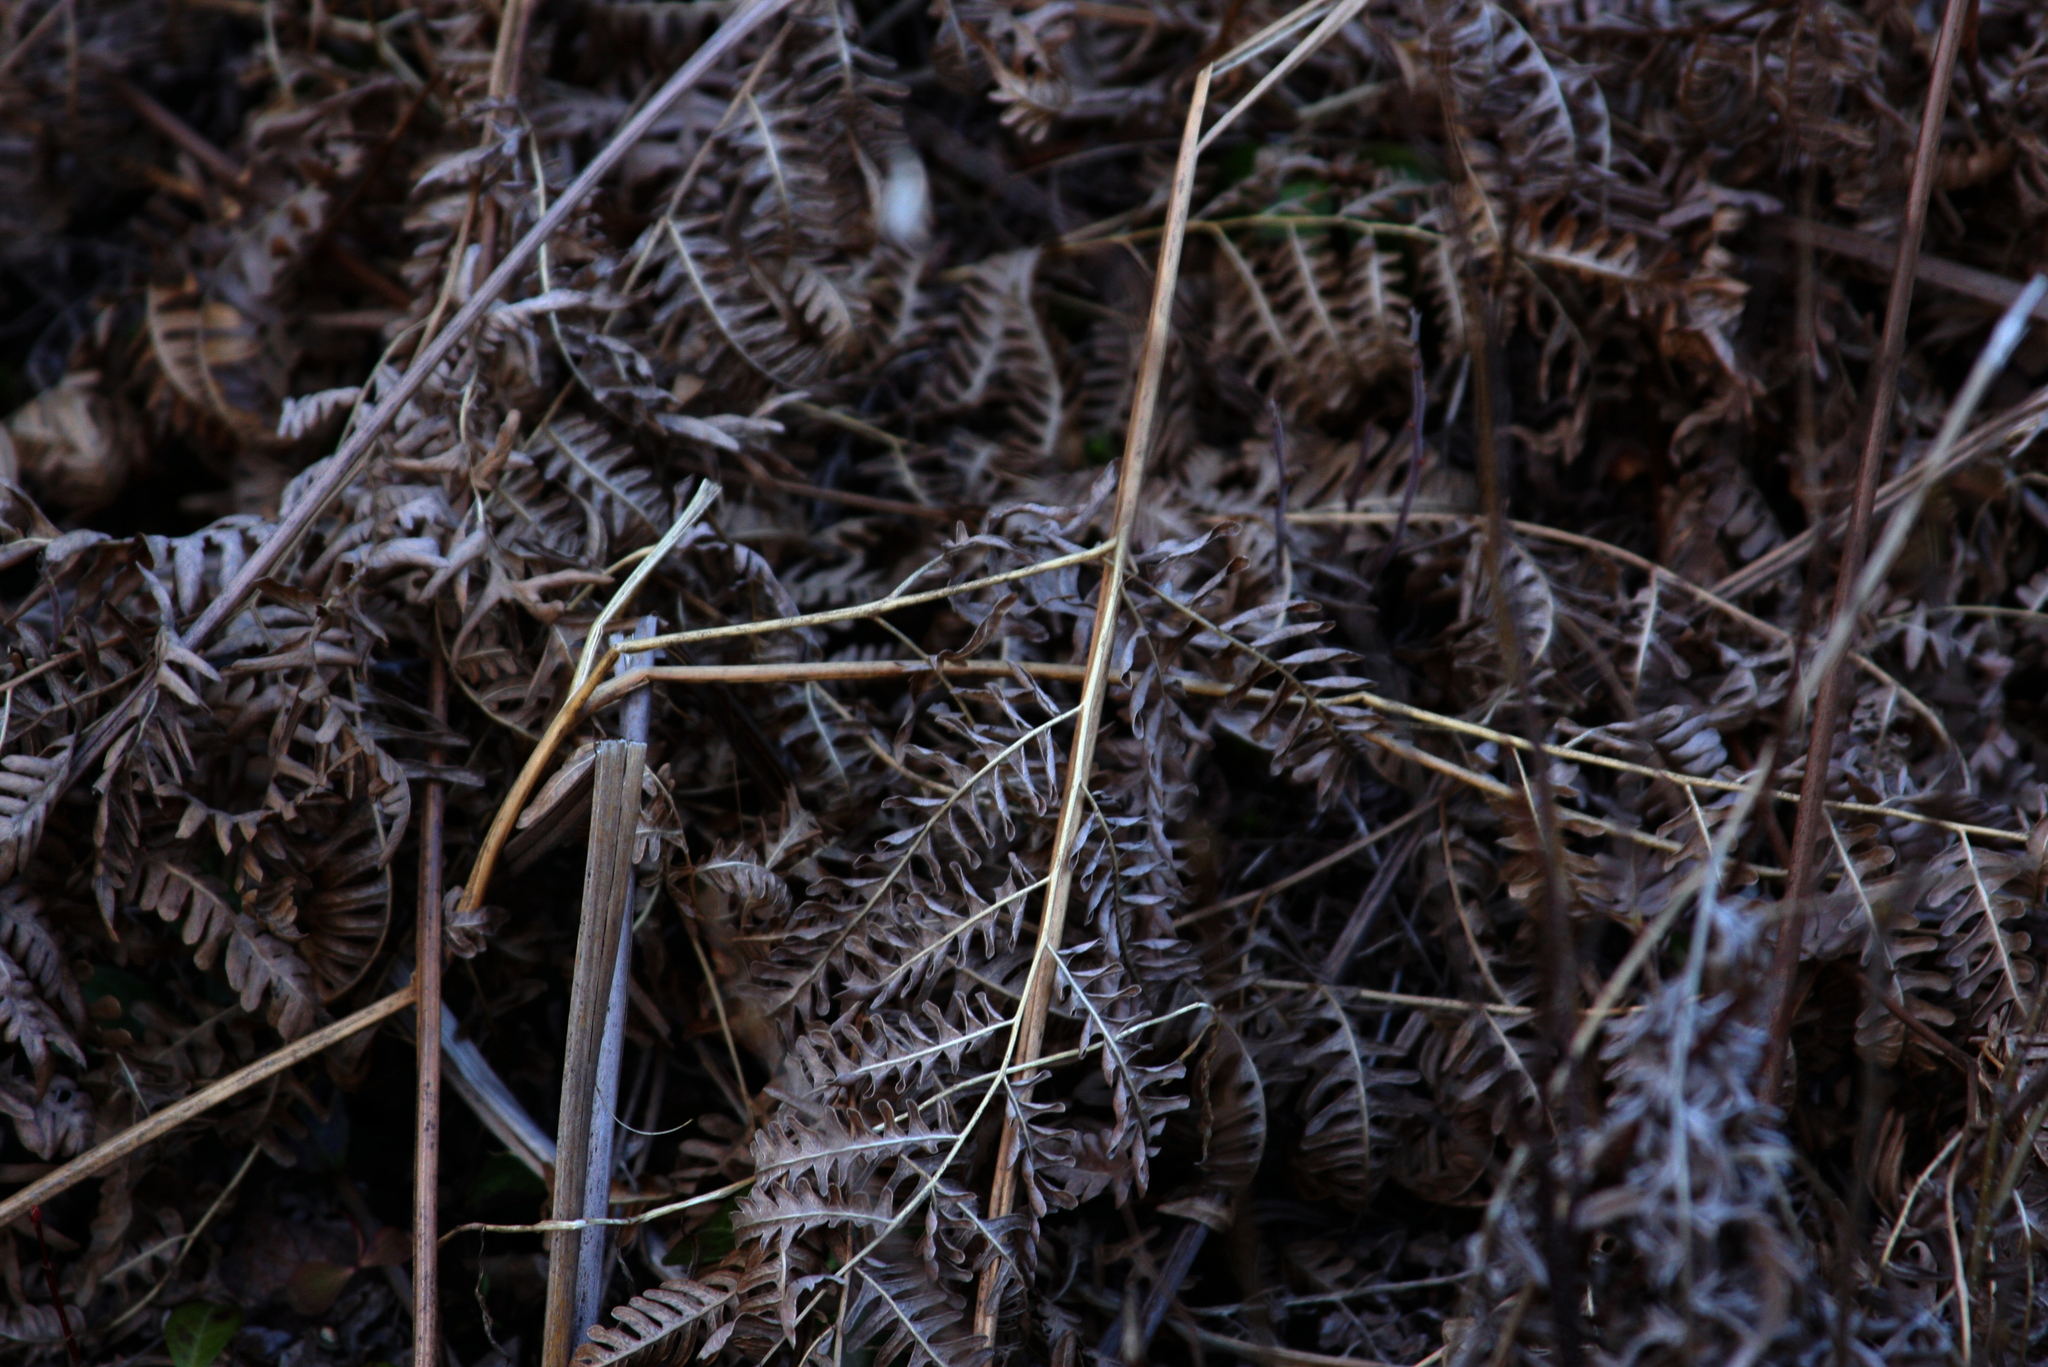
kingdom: Plantae
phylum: Tracheophyta
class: Polypodiopsida
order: Polypodiales
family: Dennstaedtiaceae
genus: Pteridium
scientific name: Pteridium aquilinum
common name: Bracken
